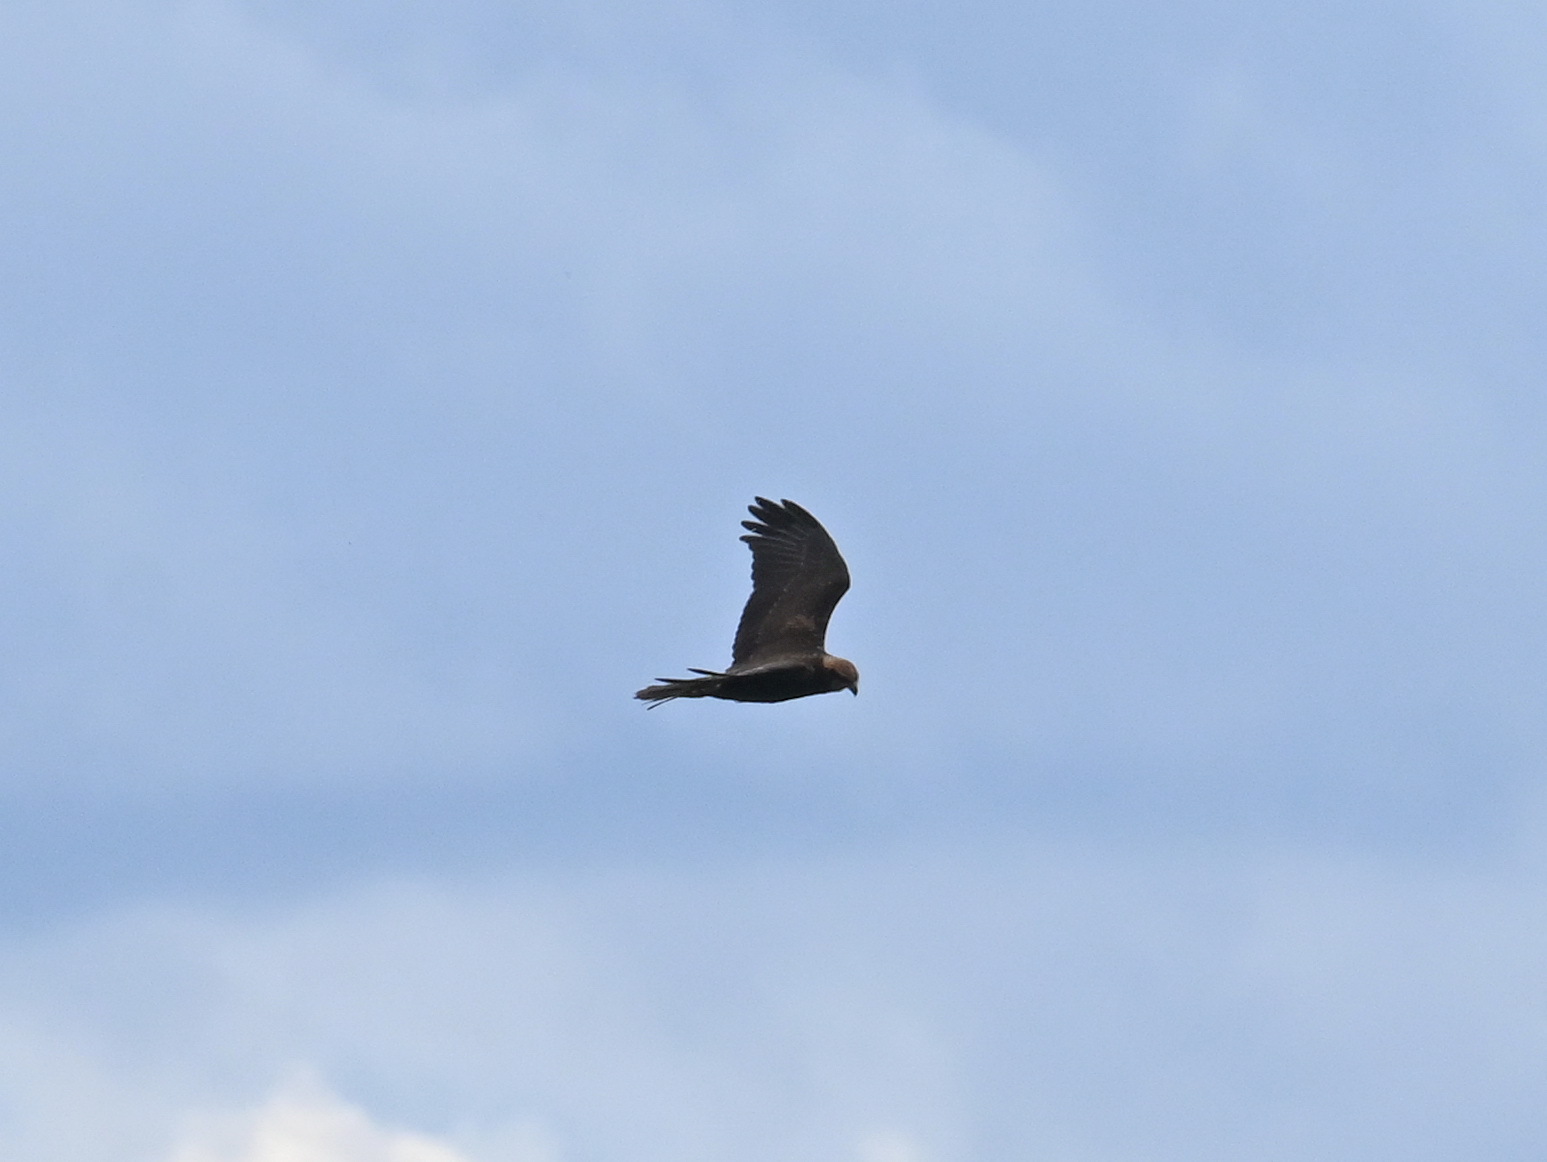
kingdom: Animalia
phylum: Chordata
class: Aves
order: Accipitriformes
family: Accipitridae
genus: Circus
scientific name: Circus aeruginosus
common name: Western marsh harrier
